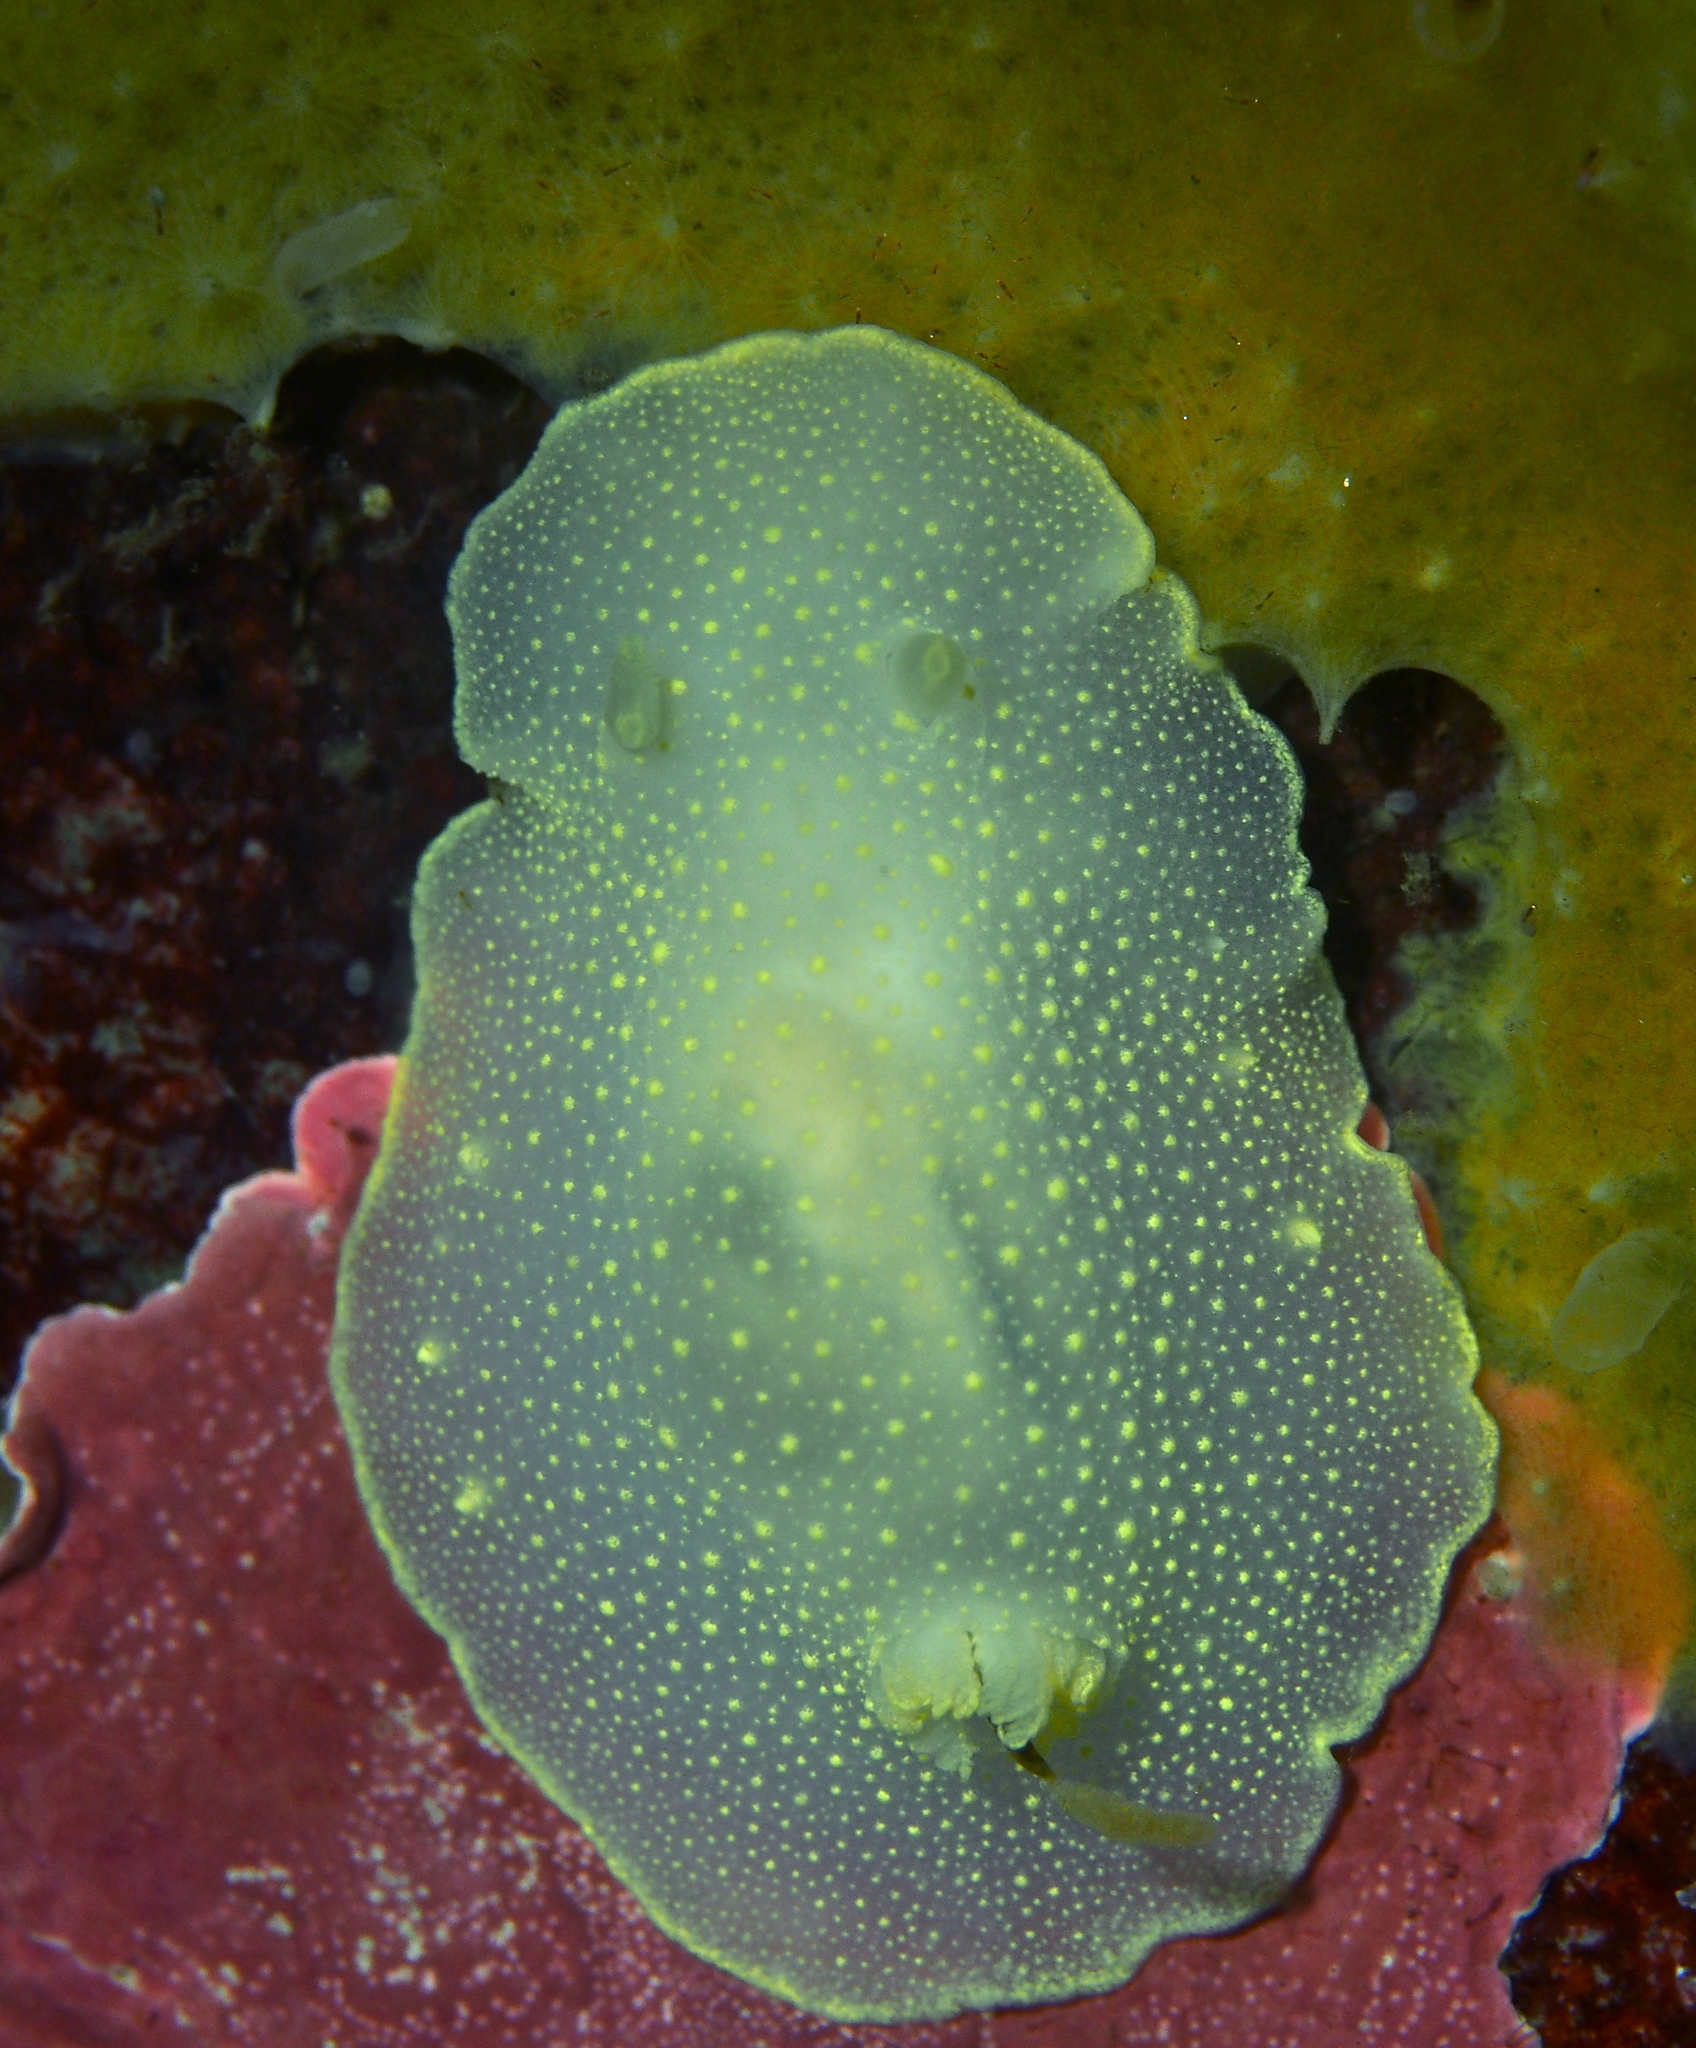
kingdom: Animalia
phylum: Mollusca
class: Gastropoda
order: Nudibranchia
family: Cadlinidae
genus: Cadlina
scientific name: Cadlina laevis
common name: White atlantic cadlina
